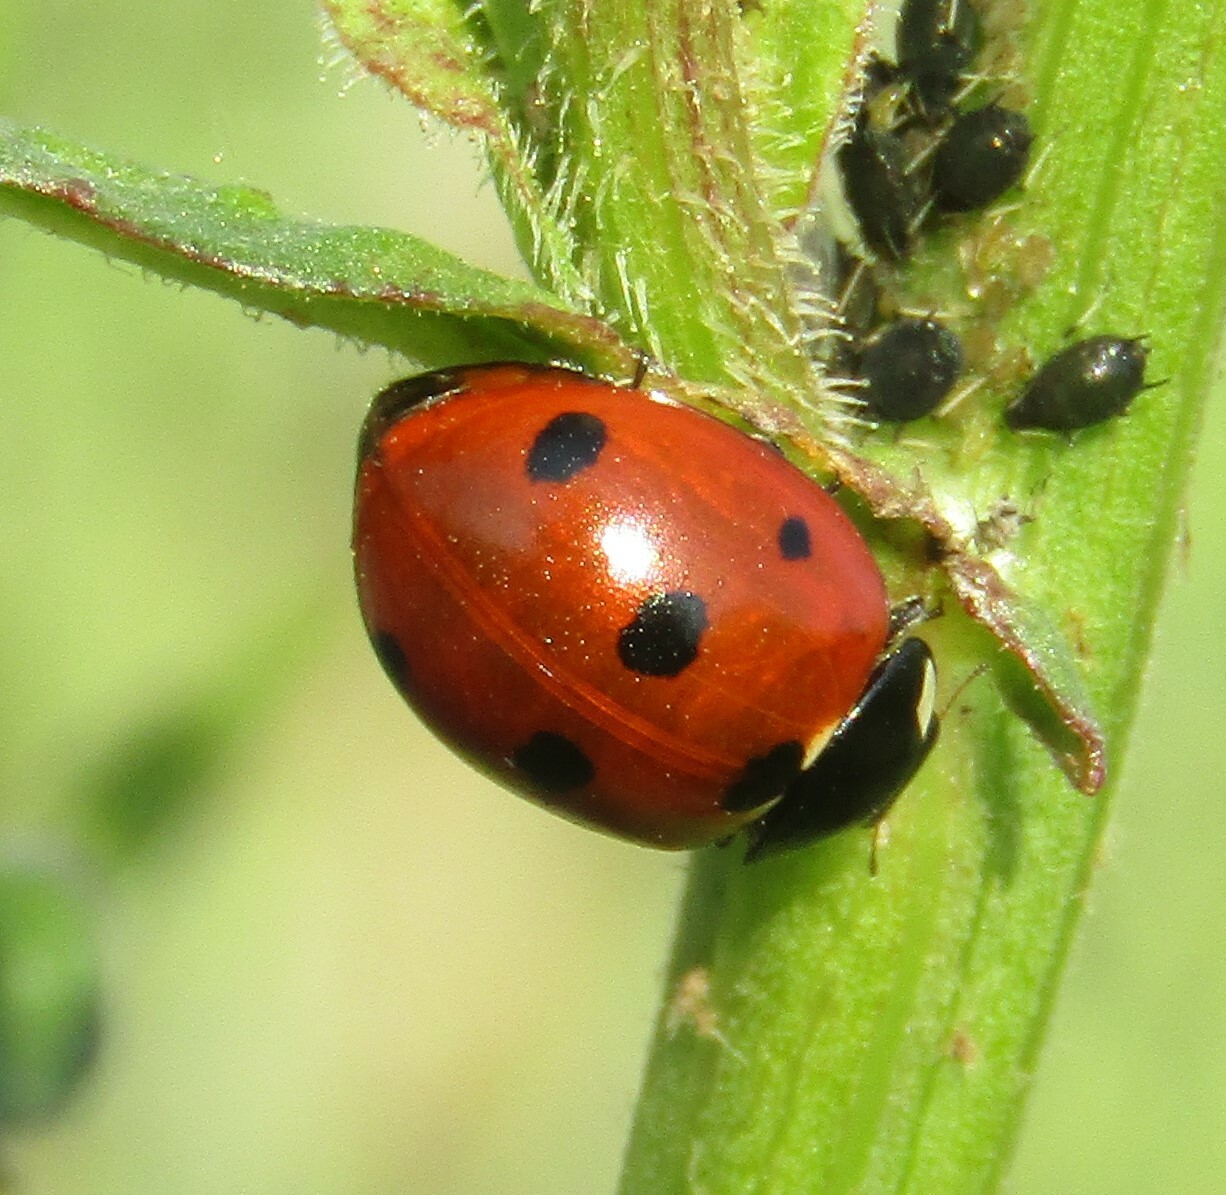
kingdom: Animalia
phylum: Arthropoda
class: Insecta
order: Coleoptera
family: Coccinellidae
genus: Coccinella
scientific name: Coccinella septempunctata
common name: Sevenspotted lady beetle
